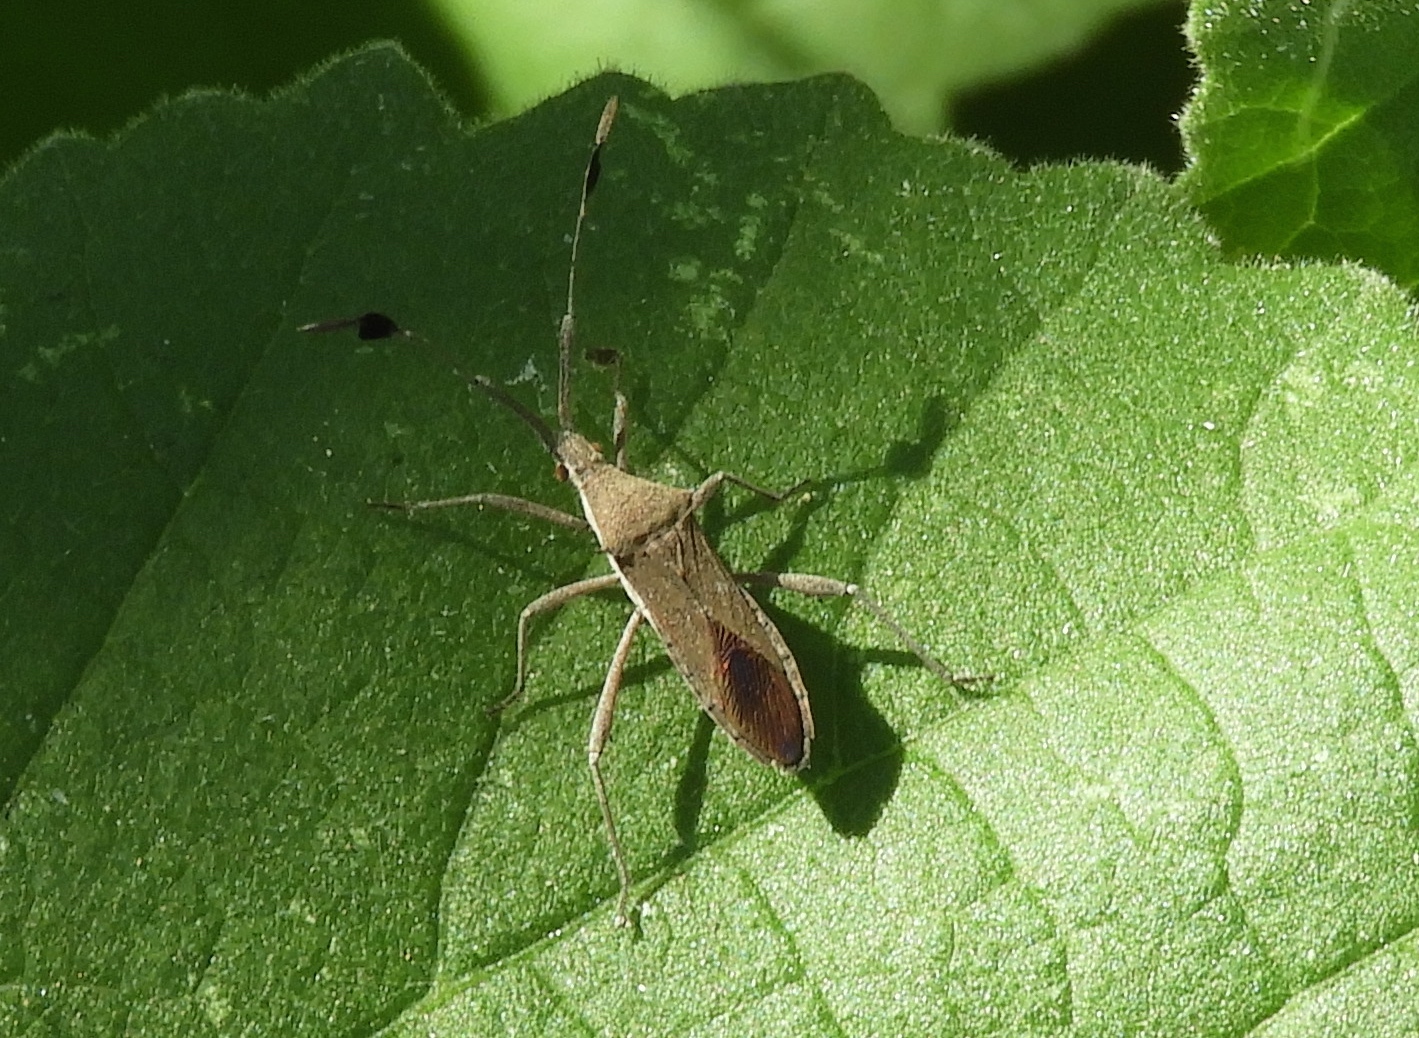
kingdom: Animalia
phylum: Arthropoda
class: Insecta
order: Hemiptera
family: Coreidae
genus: Chariesterus
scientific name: Chariesterus
